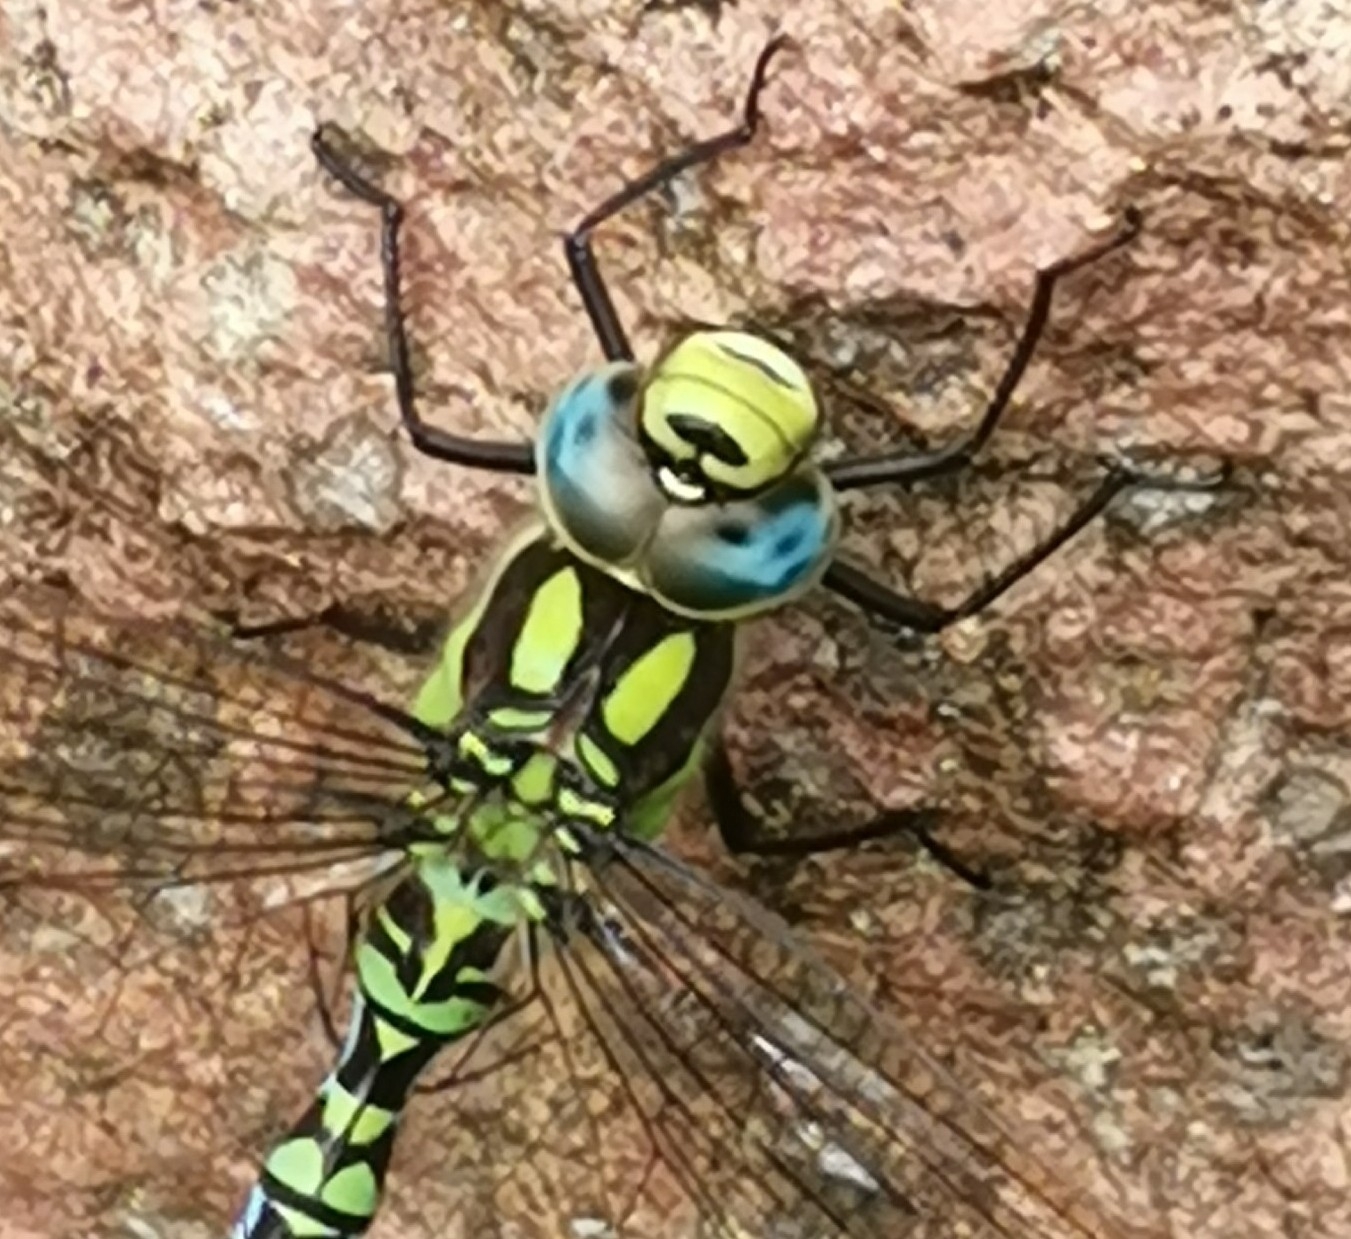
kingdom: Animalia
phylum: Arthropoda
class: Insecta
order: Odonata
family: Aeshnidae
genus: Aeshna
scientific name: Aeshna cyanea
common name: Southern hawker
